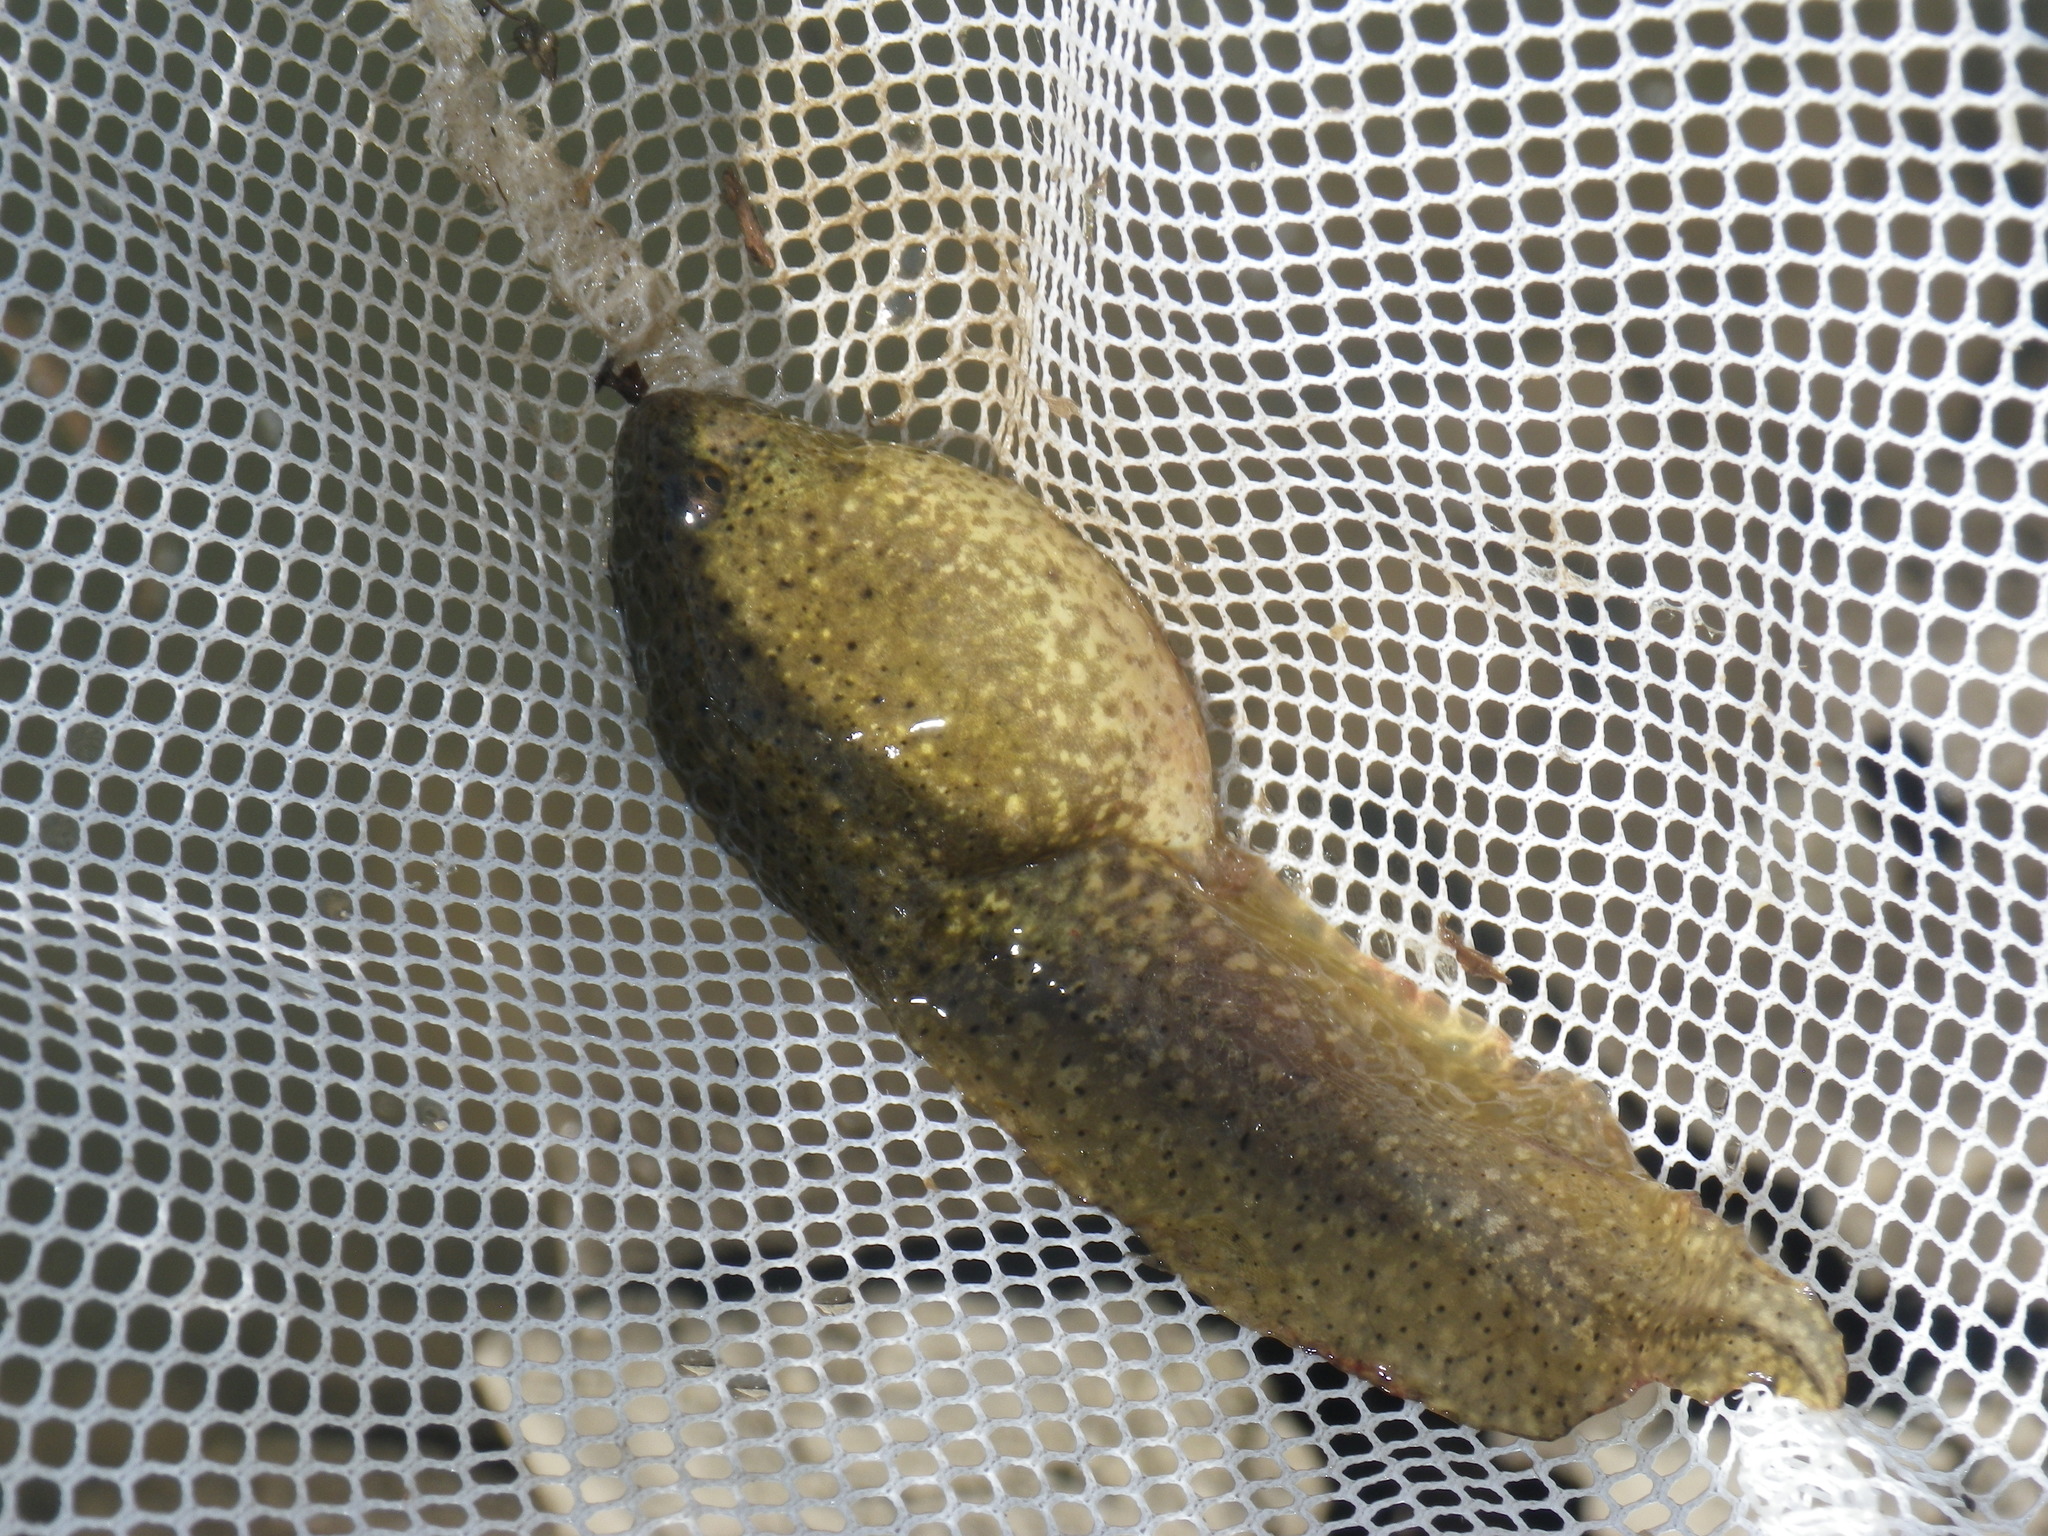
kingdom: Animalia
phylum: Chordata
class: Amphibia
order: Anura
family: Ranidae
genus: Lithobates
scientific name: Lithobates catesbeianus
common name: American bullfrog
